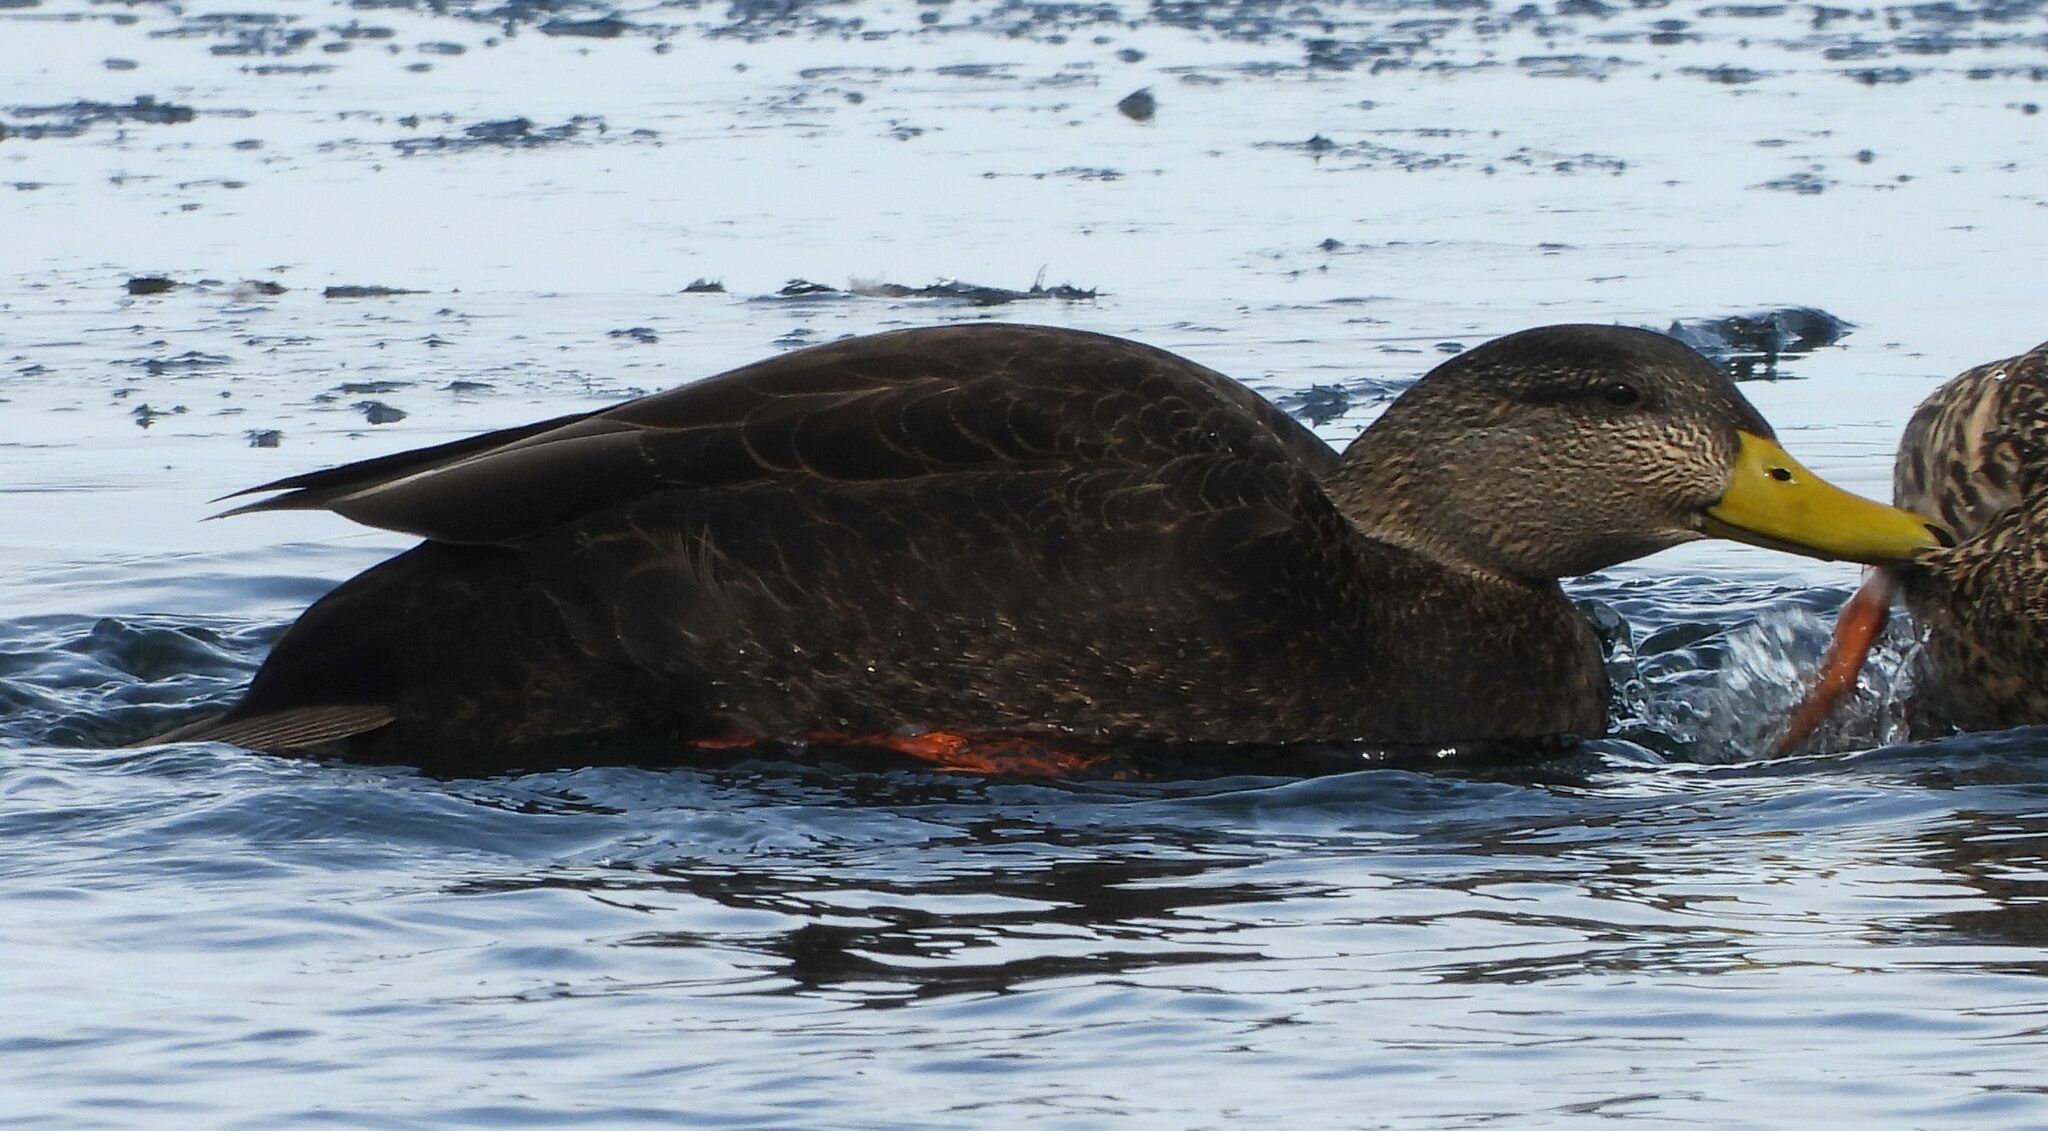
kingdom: Animalia
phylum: Chordata
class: Aves
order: Anseriformes
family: Anatidae
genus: Anas
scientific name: Anas rubripes
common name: American black duck
